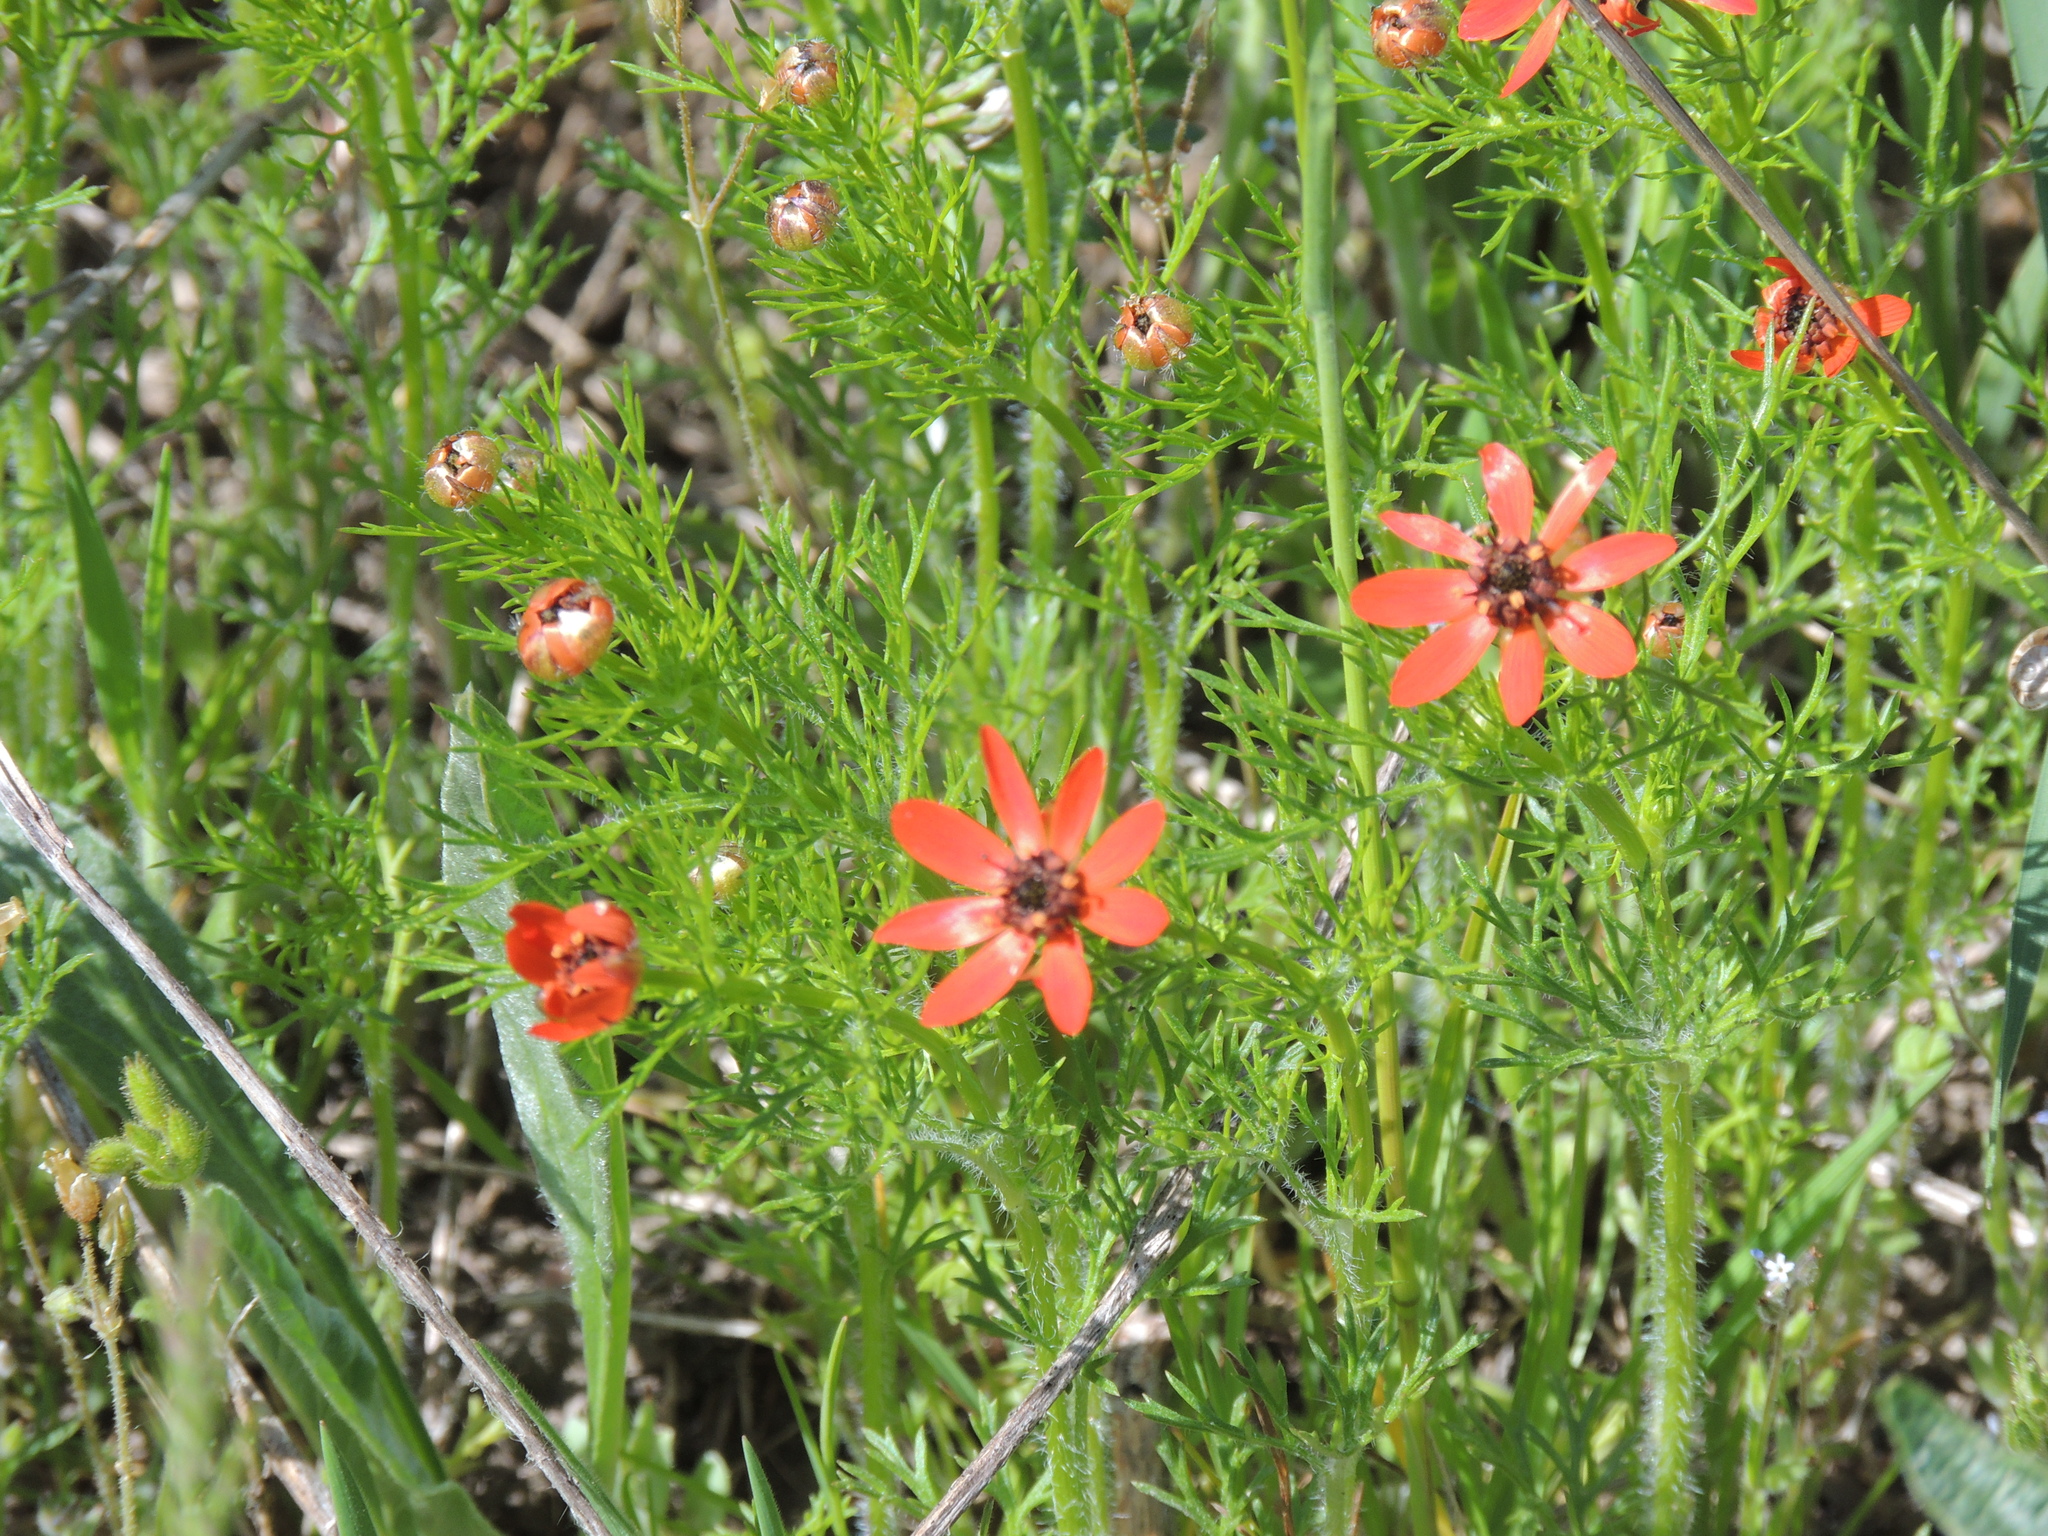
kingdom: Plantae
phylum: Tracheophyta
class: Magnoliopsida
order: Ranunculales
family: Ranunculaceae
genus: Adonis
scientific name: Adonis flammea
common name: Large pheasant's-eye
